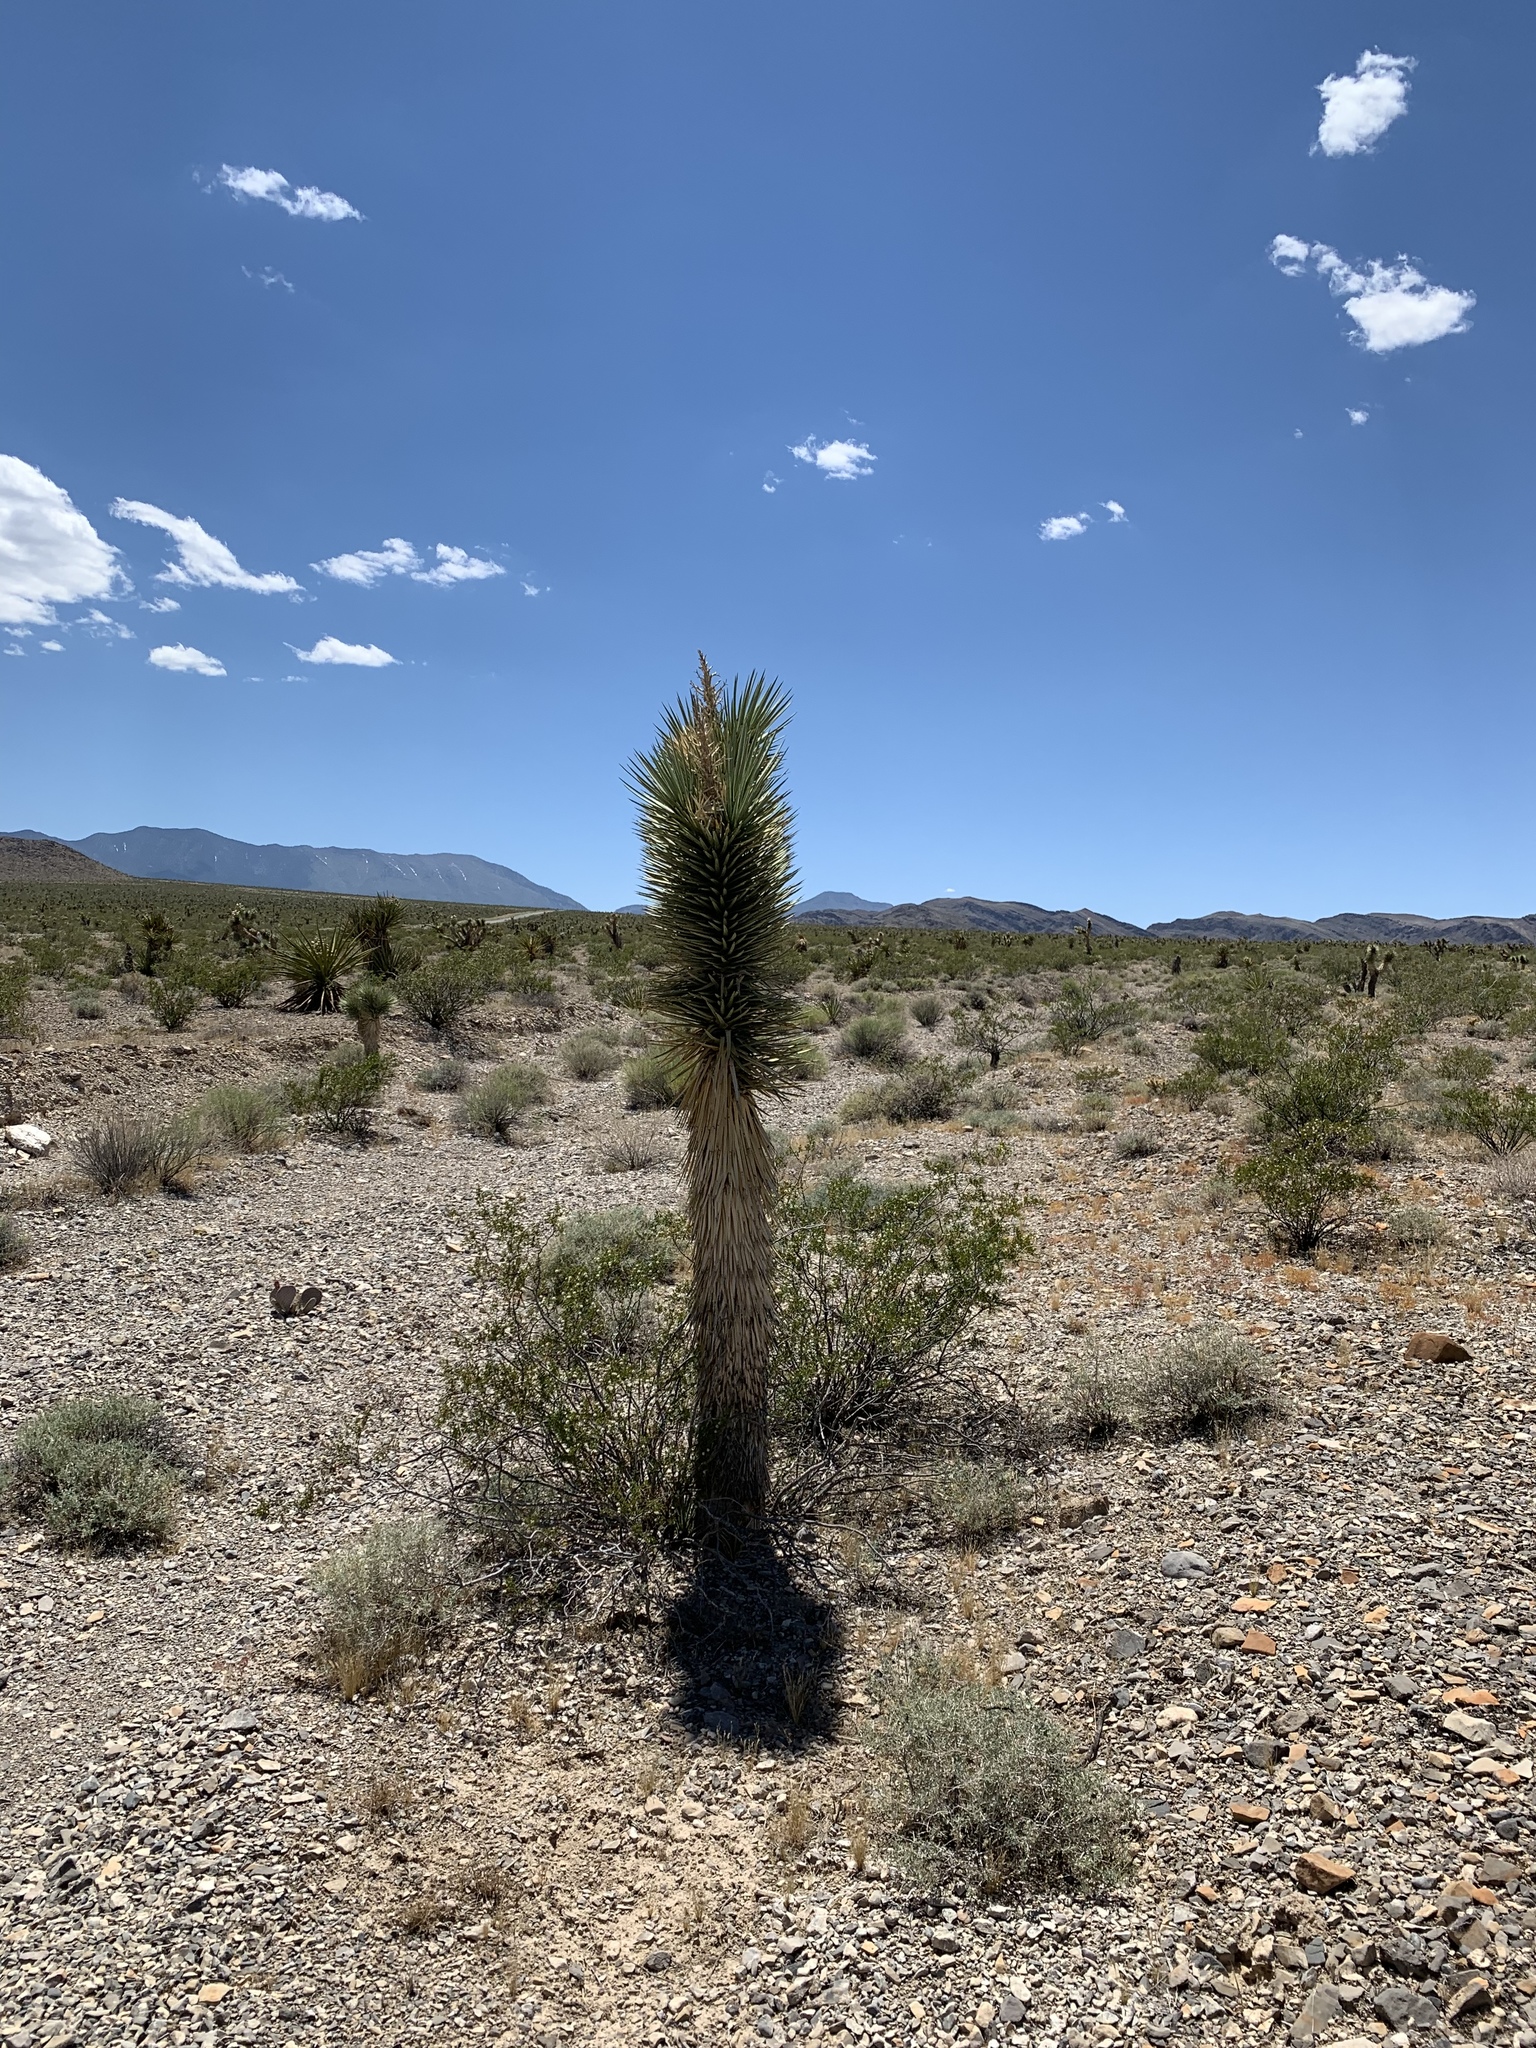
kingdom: Plantae
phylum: Tracheophyta
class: Liliopsida
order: Asparagales
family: Asparagaceae
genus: Yucca
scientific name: Yucca brevifolia
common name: Joshua tree
